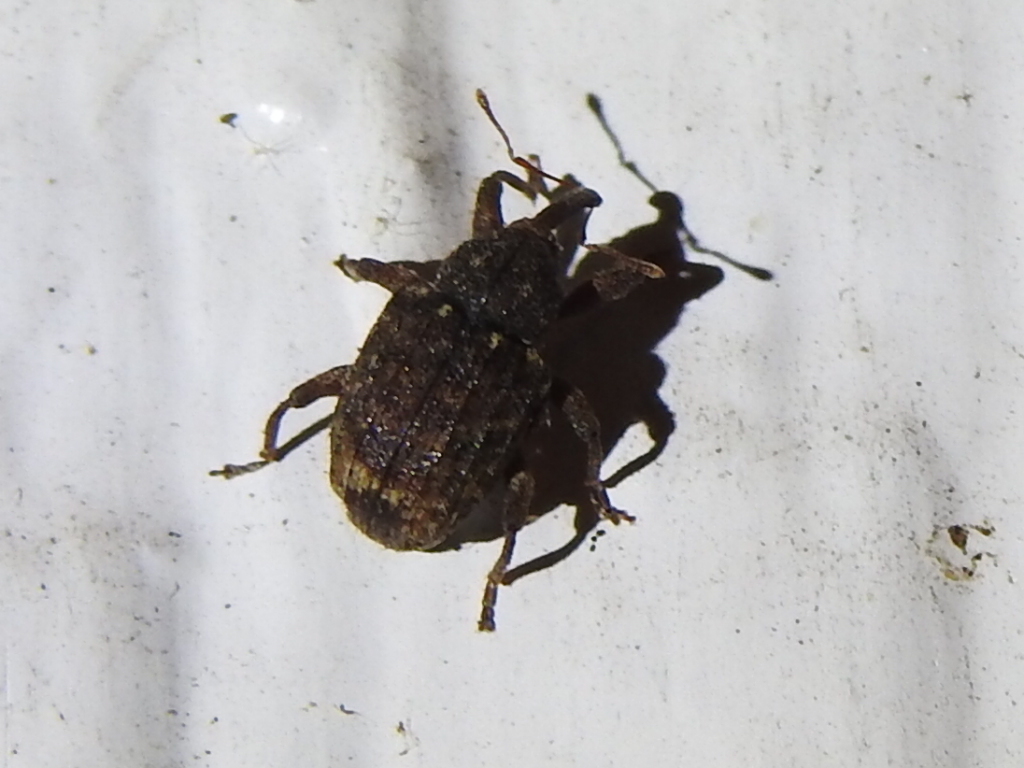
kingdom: Animalia
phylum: Arthropoda
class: Insecta
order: Coleoptera
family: Curculionidae
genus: Conotrachelus
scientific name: Conotrachelus posticatus
